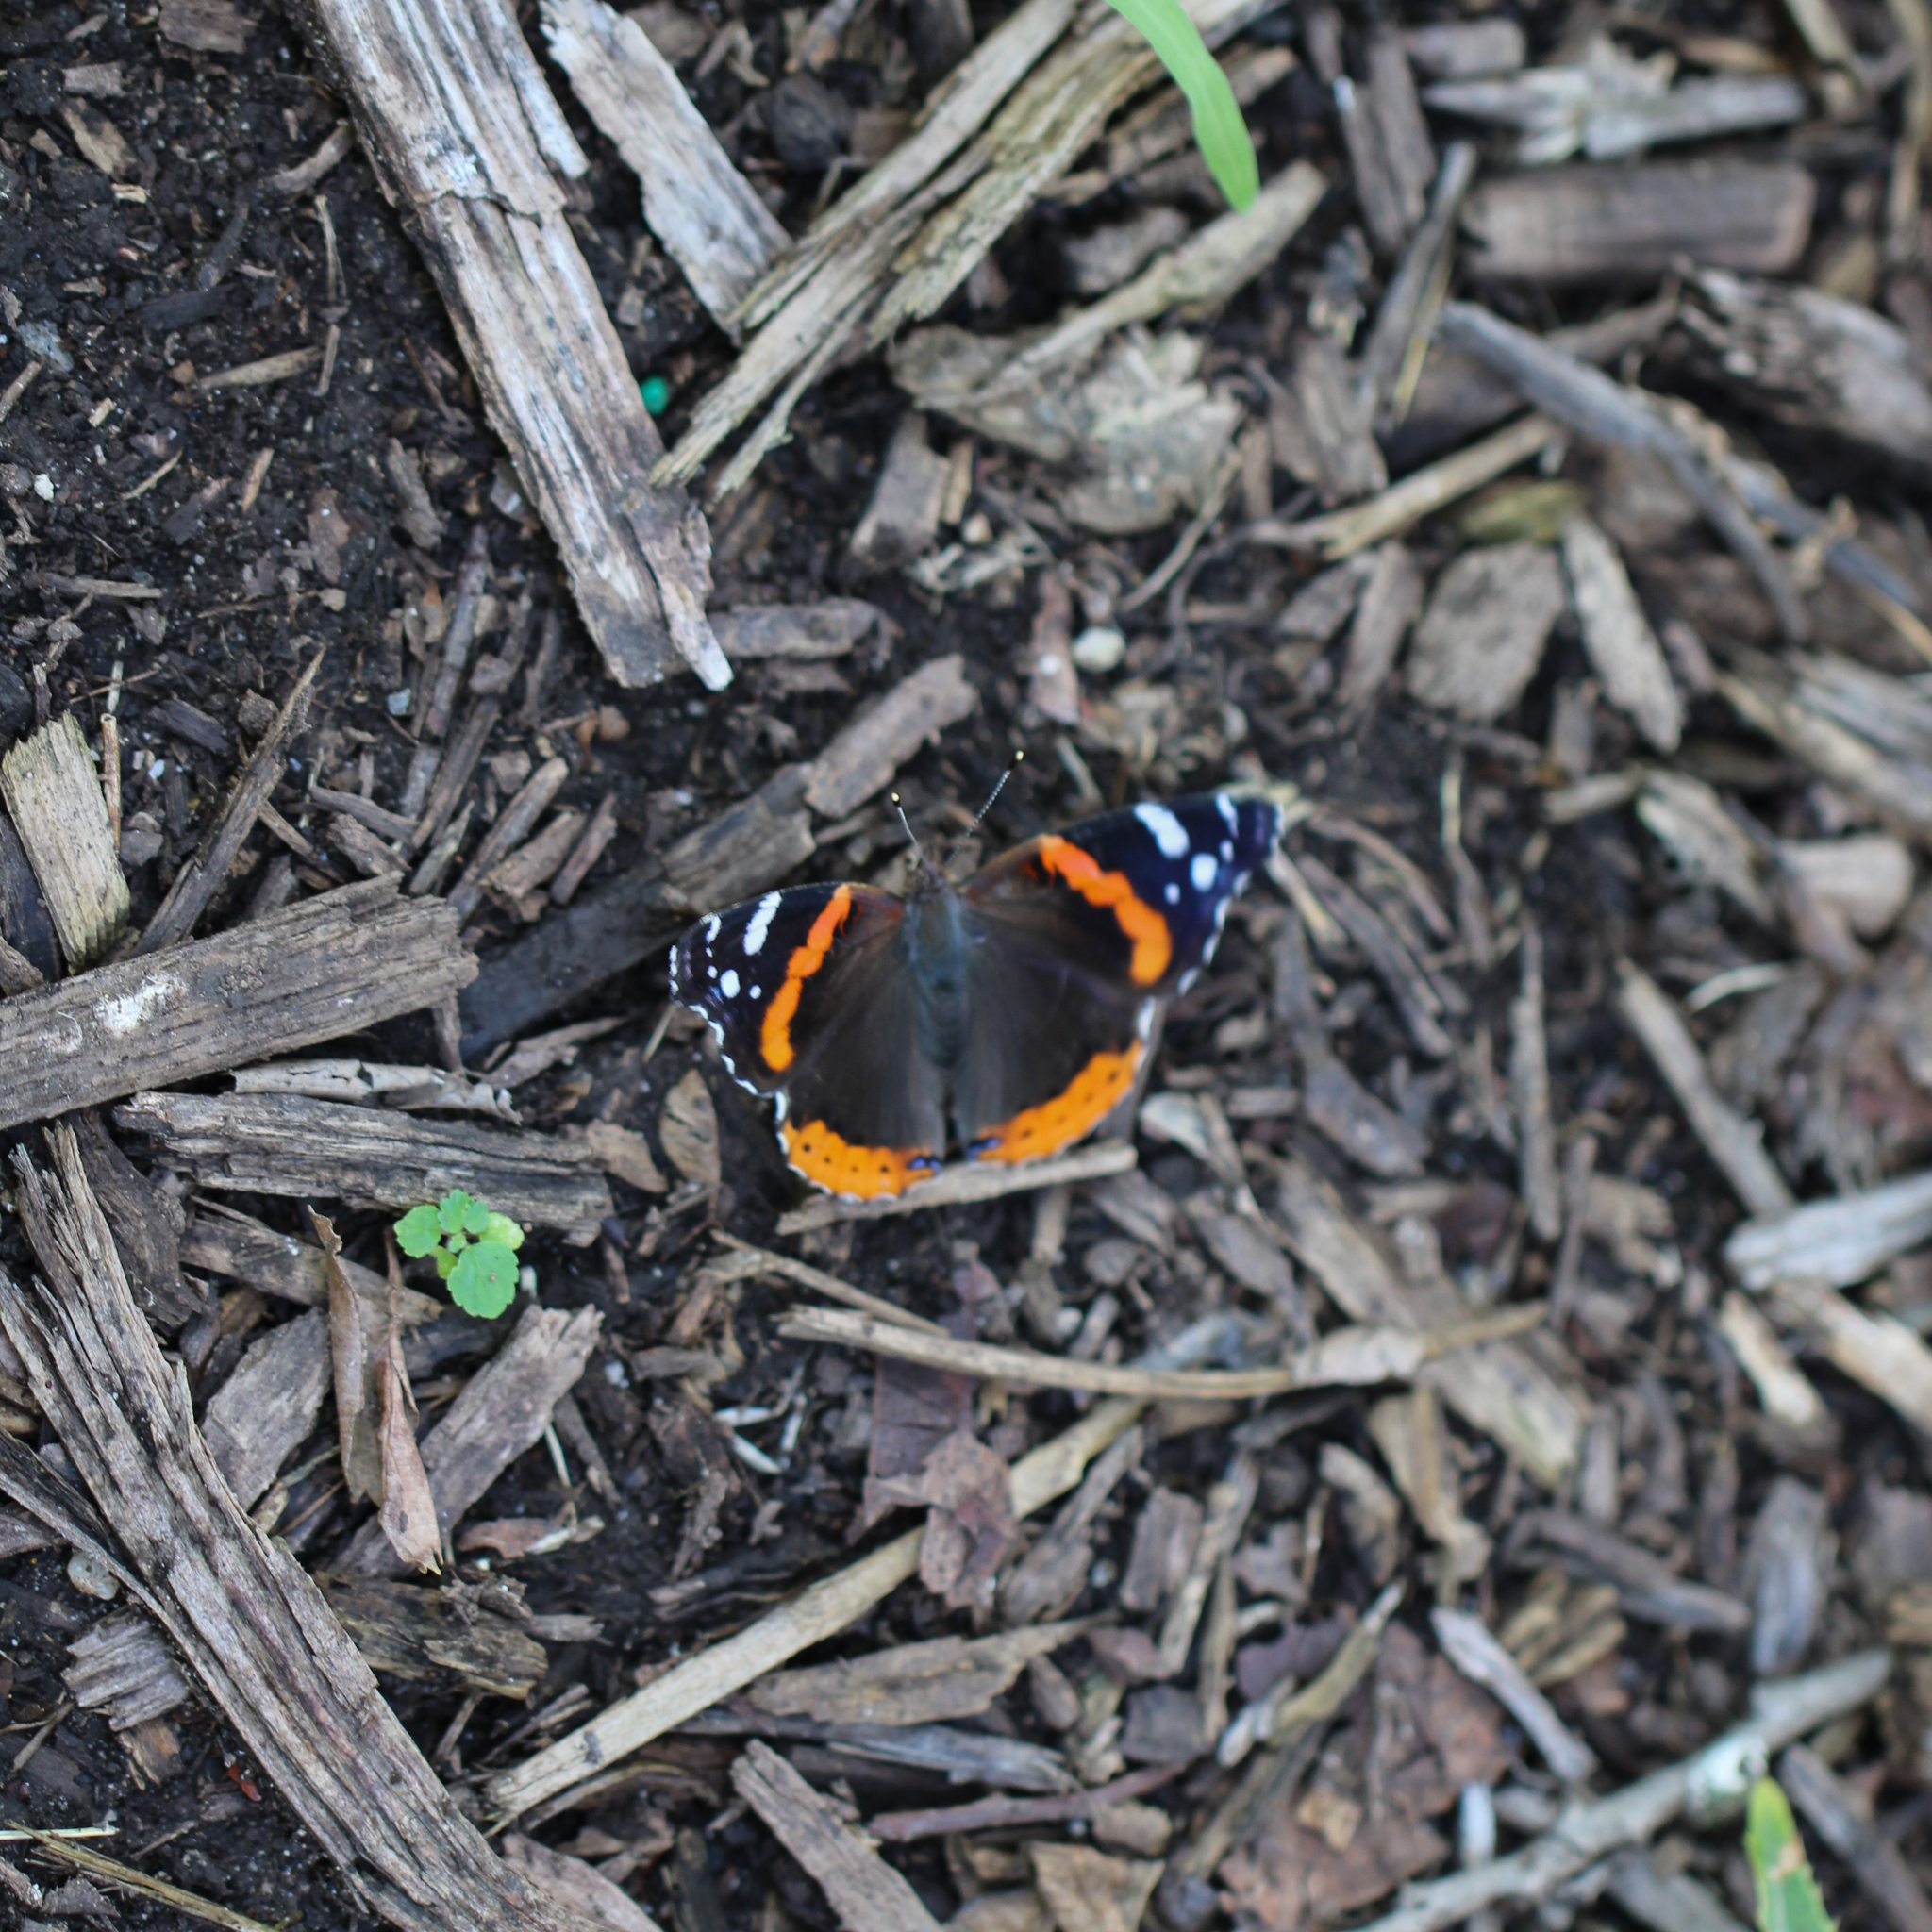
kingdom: Animalia
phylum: Arthropoda
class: Insecta
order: Lepidoptera
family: Nymphalidae
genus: Vanessa
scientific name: Vanessa atalanta
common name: Red admiral
